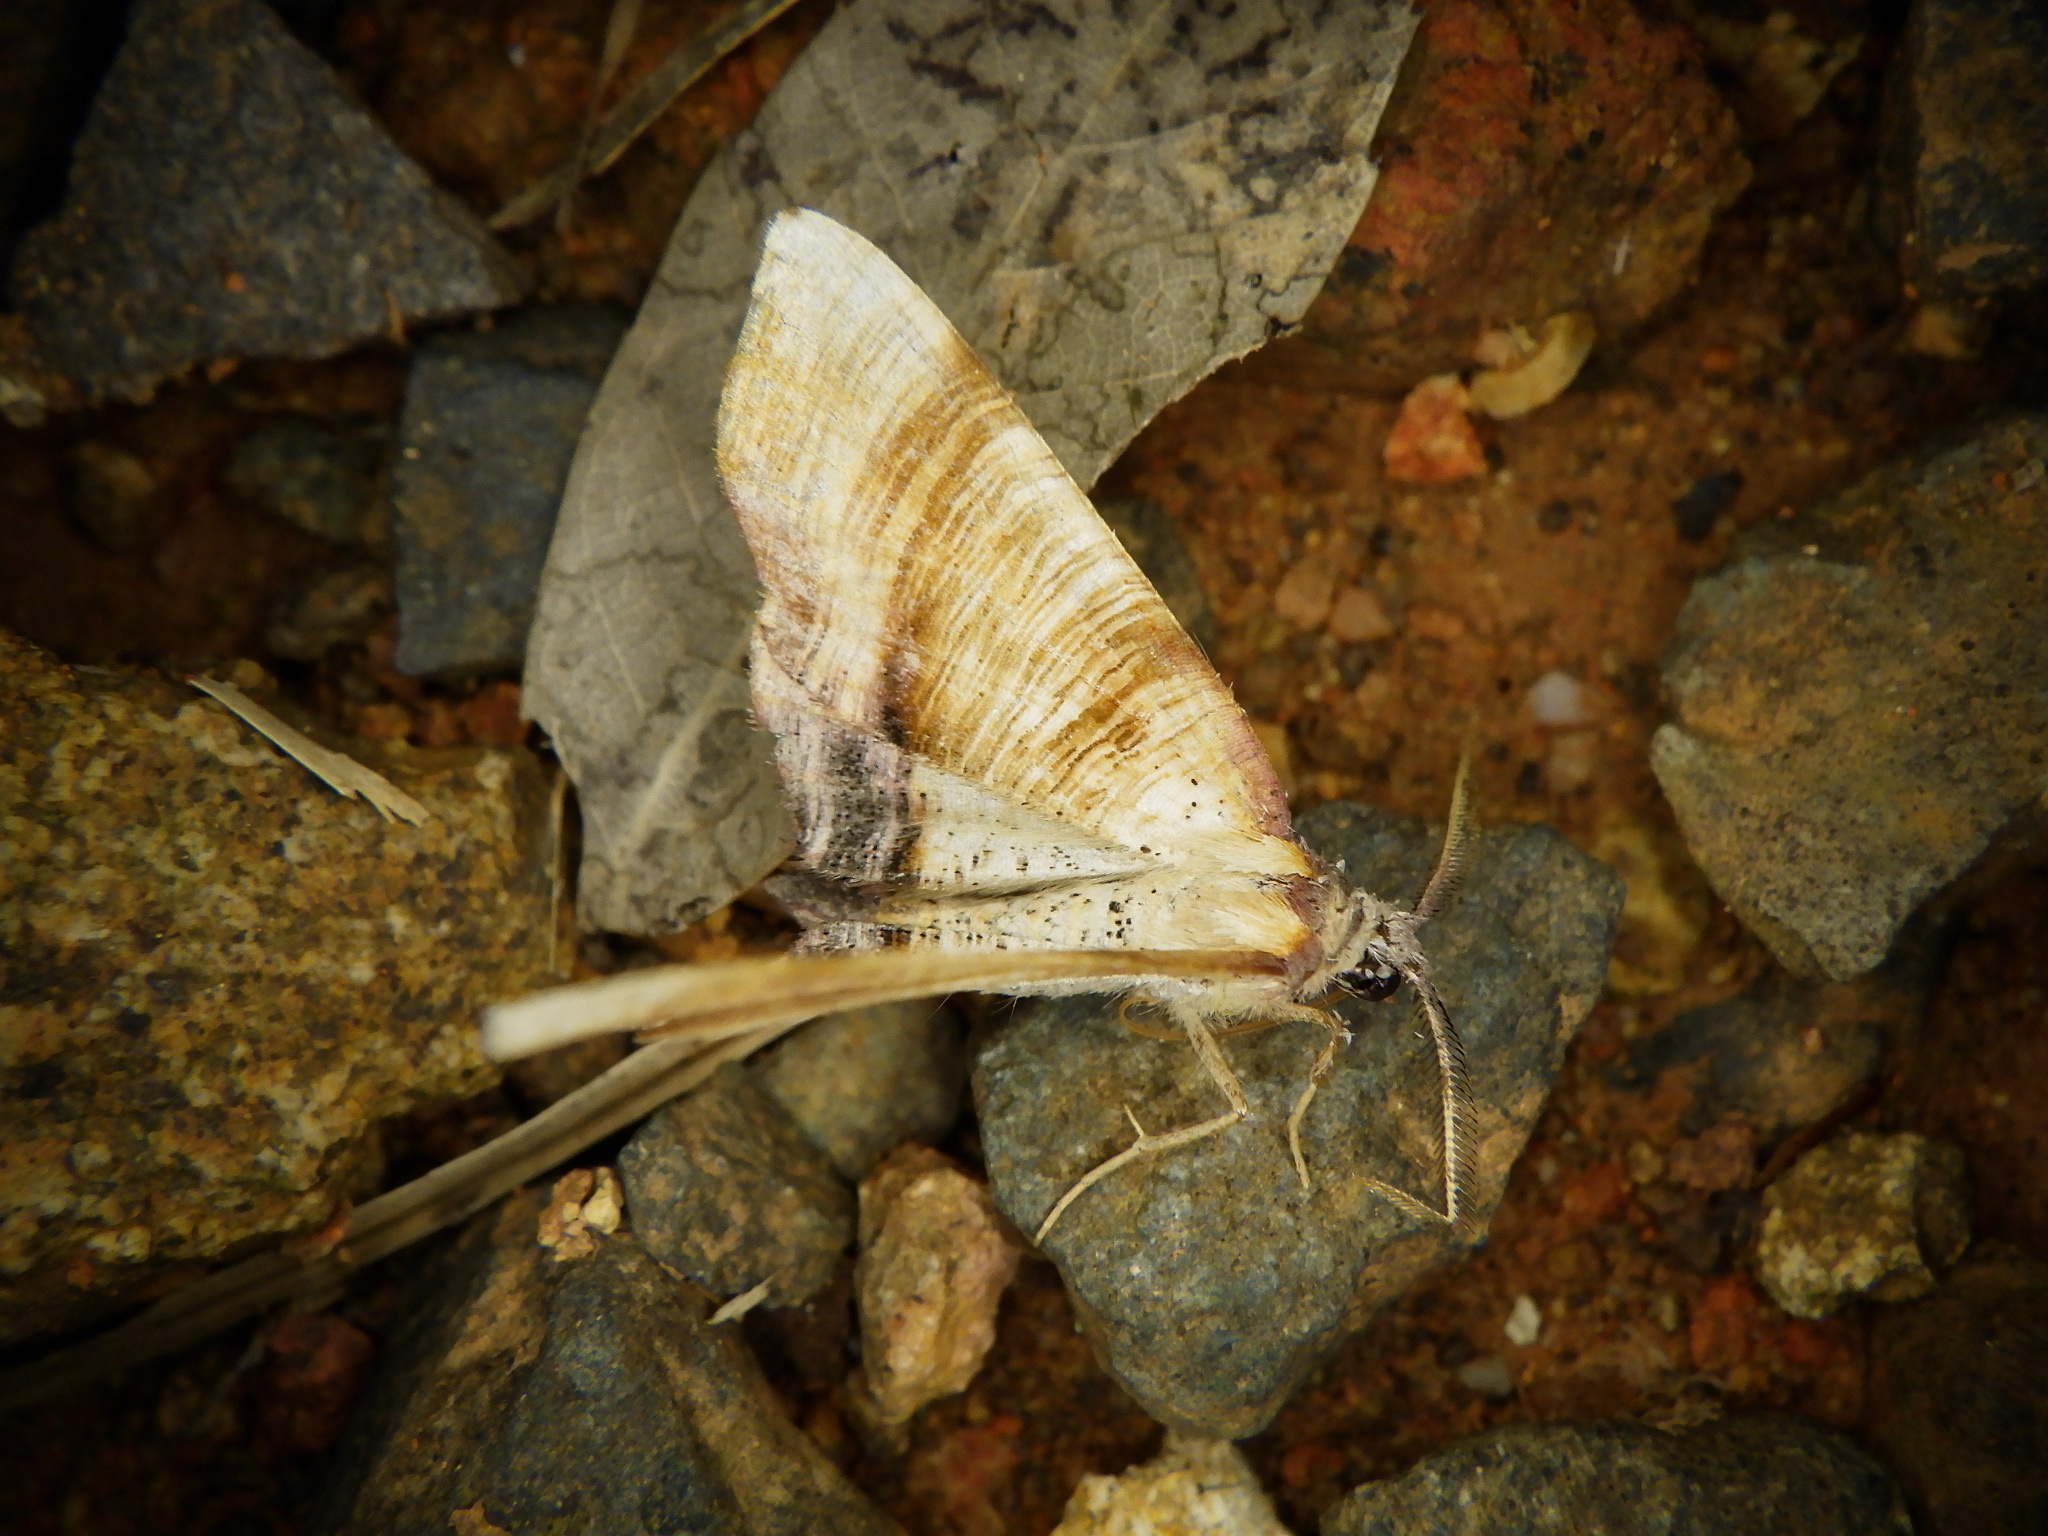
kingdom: Animalia
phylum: Arthropoda
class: Insecta
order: Lepidoptera
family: Geometridae
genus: Plagodis
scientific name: Plagodis dolabraria
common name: Scorched wing
